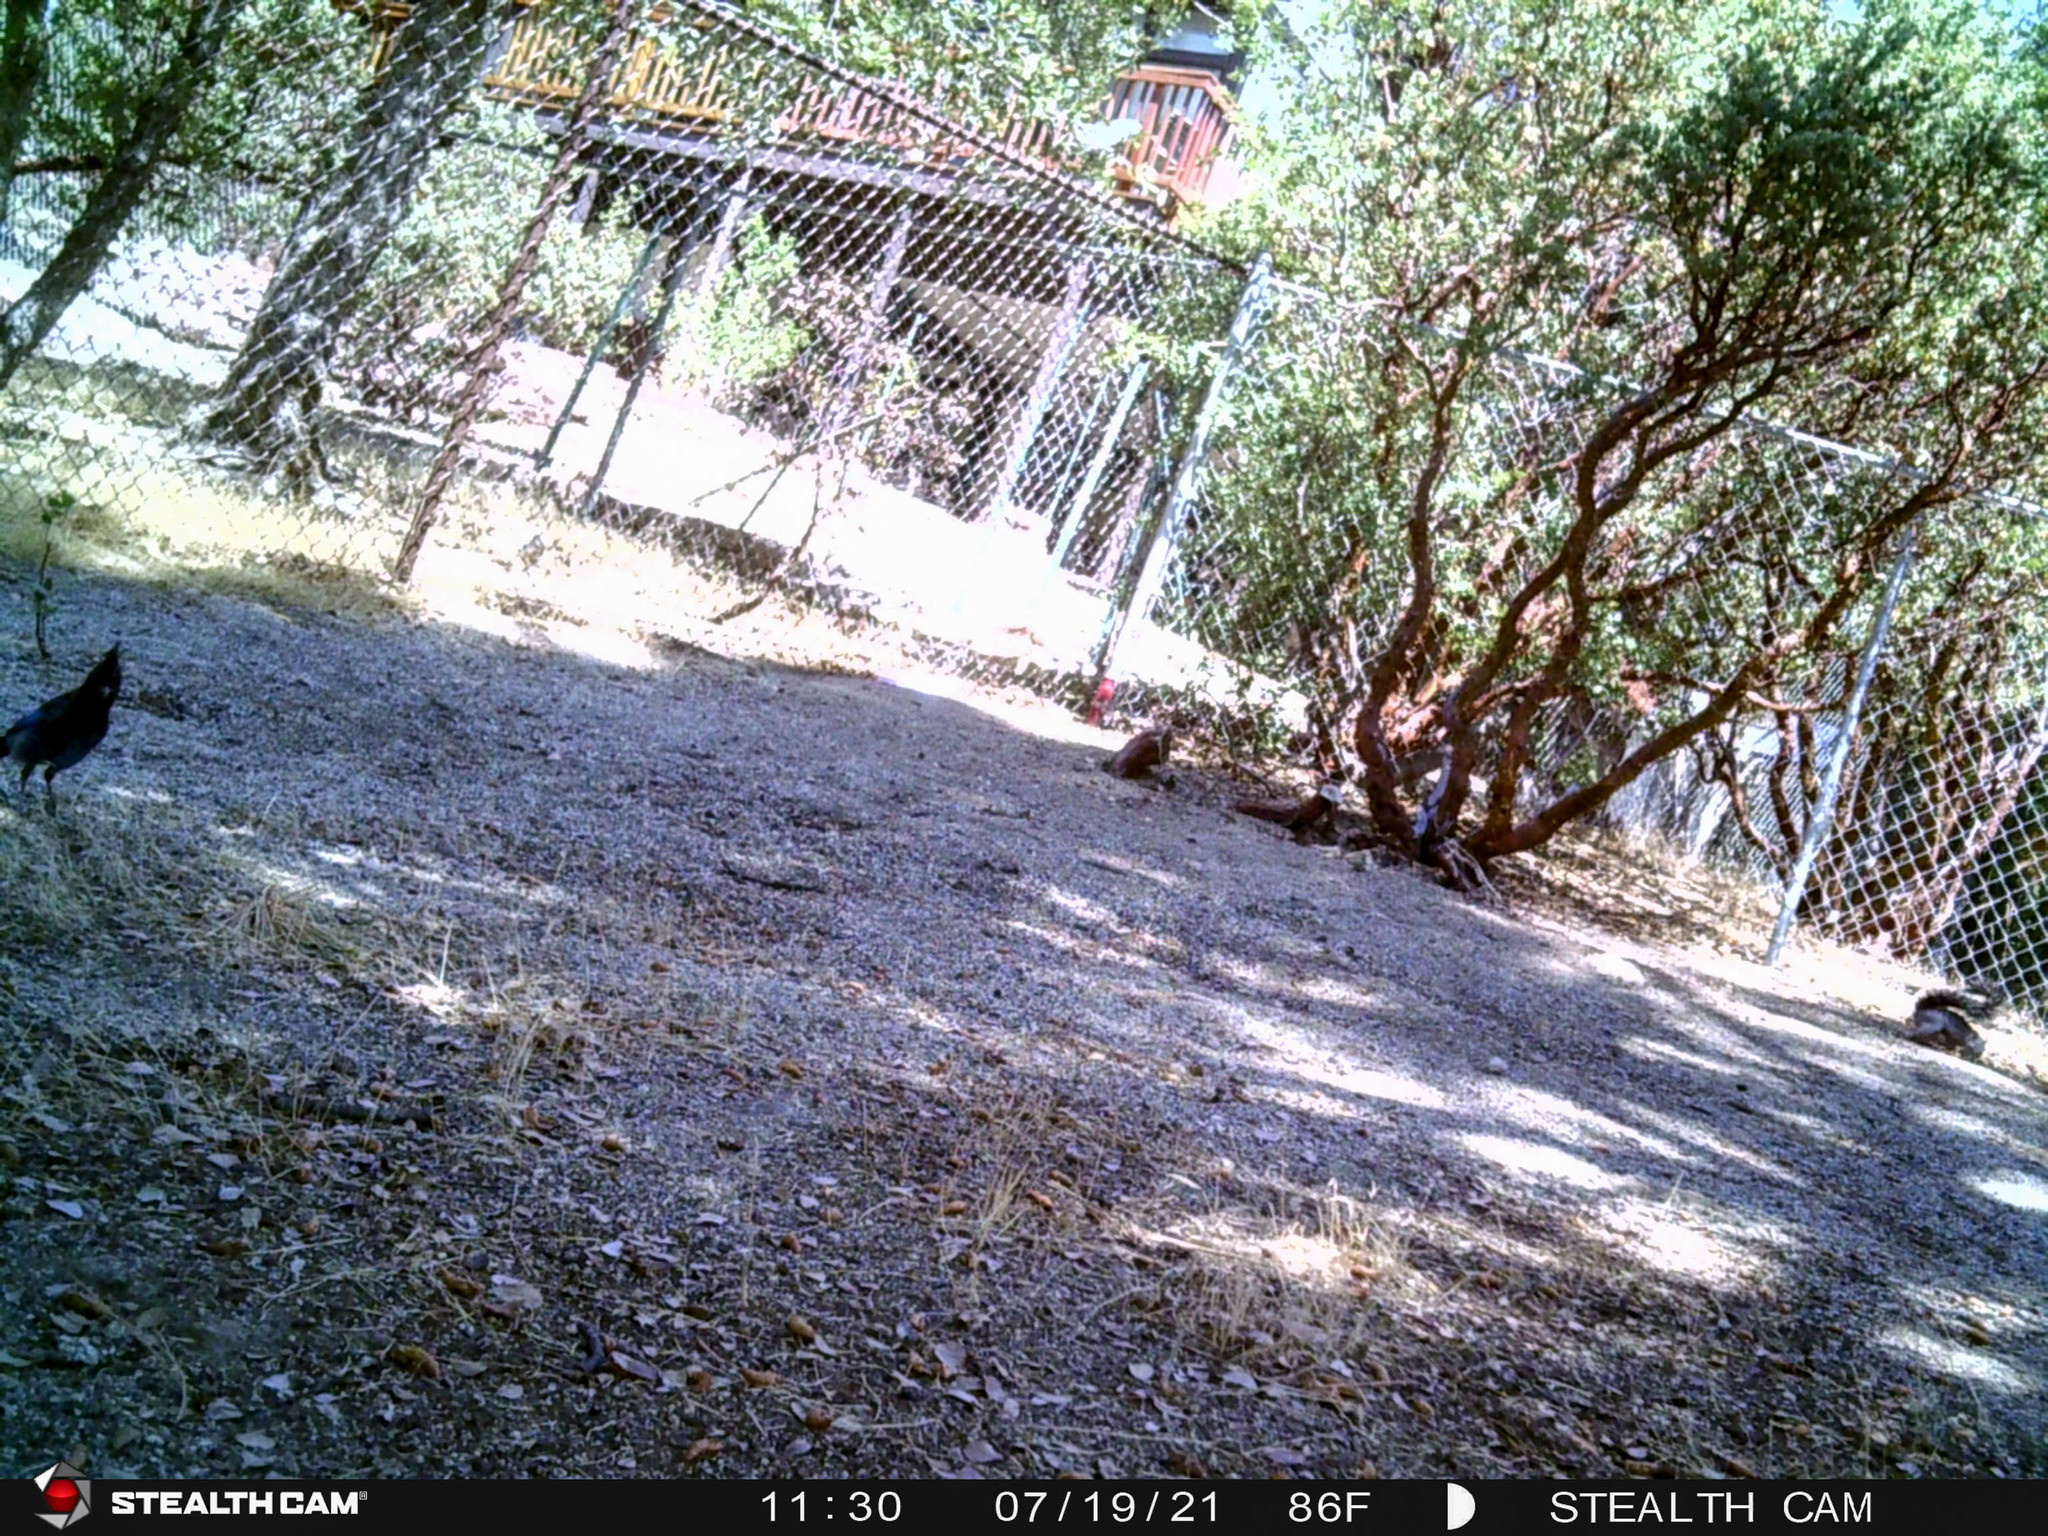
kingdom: Animalia
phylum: Chordata
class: Aves
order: Passeriformes
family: Corvidae
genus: Cyanocitta
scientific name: Cyanocitta stelleri
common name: Steller's jay
